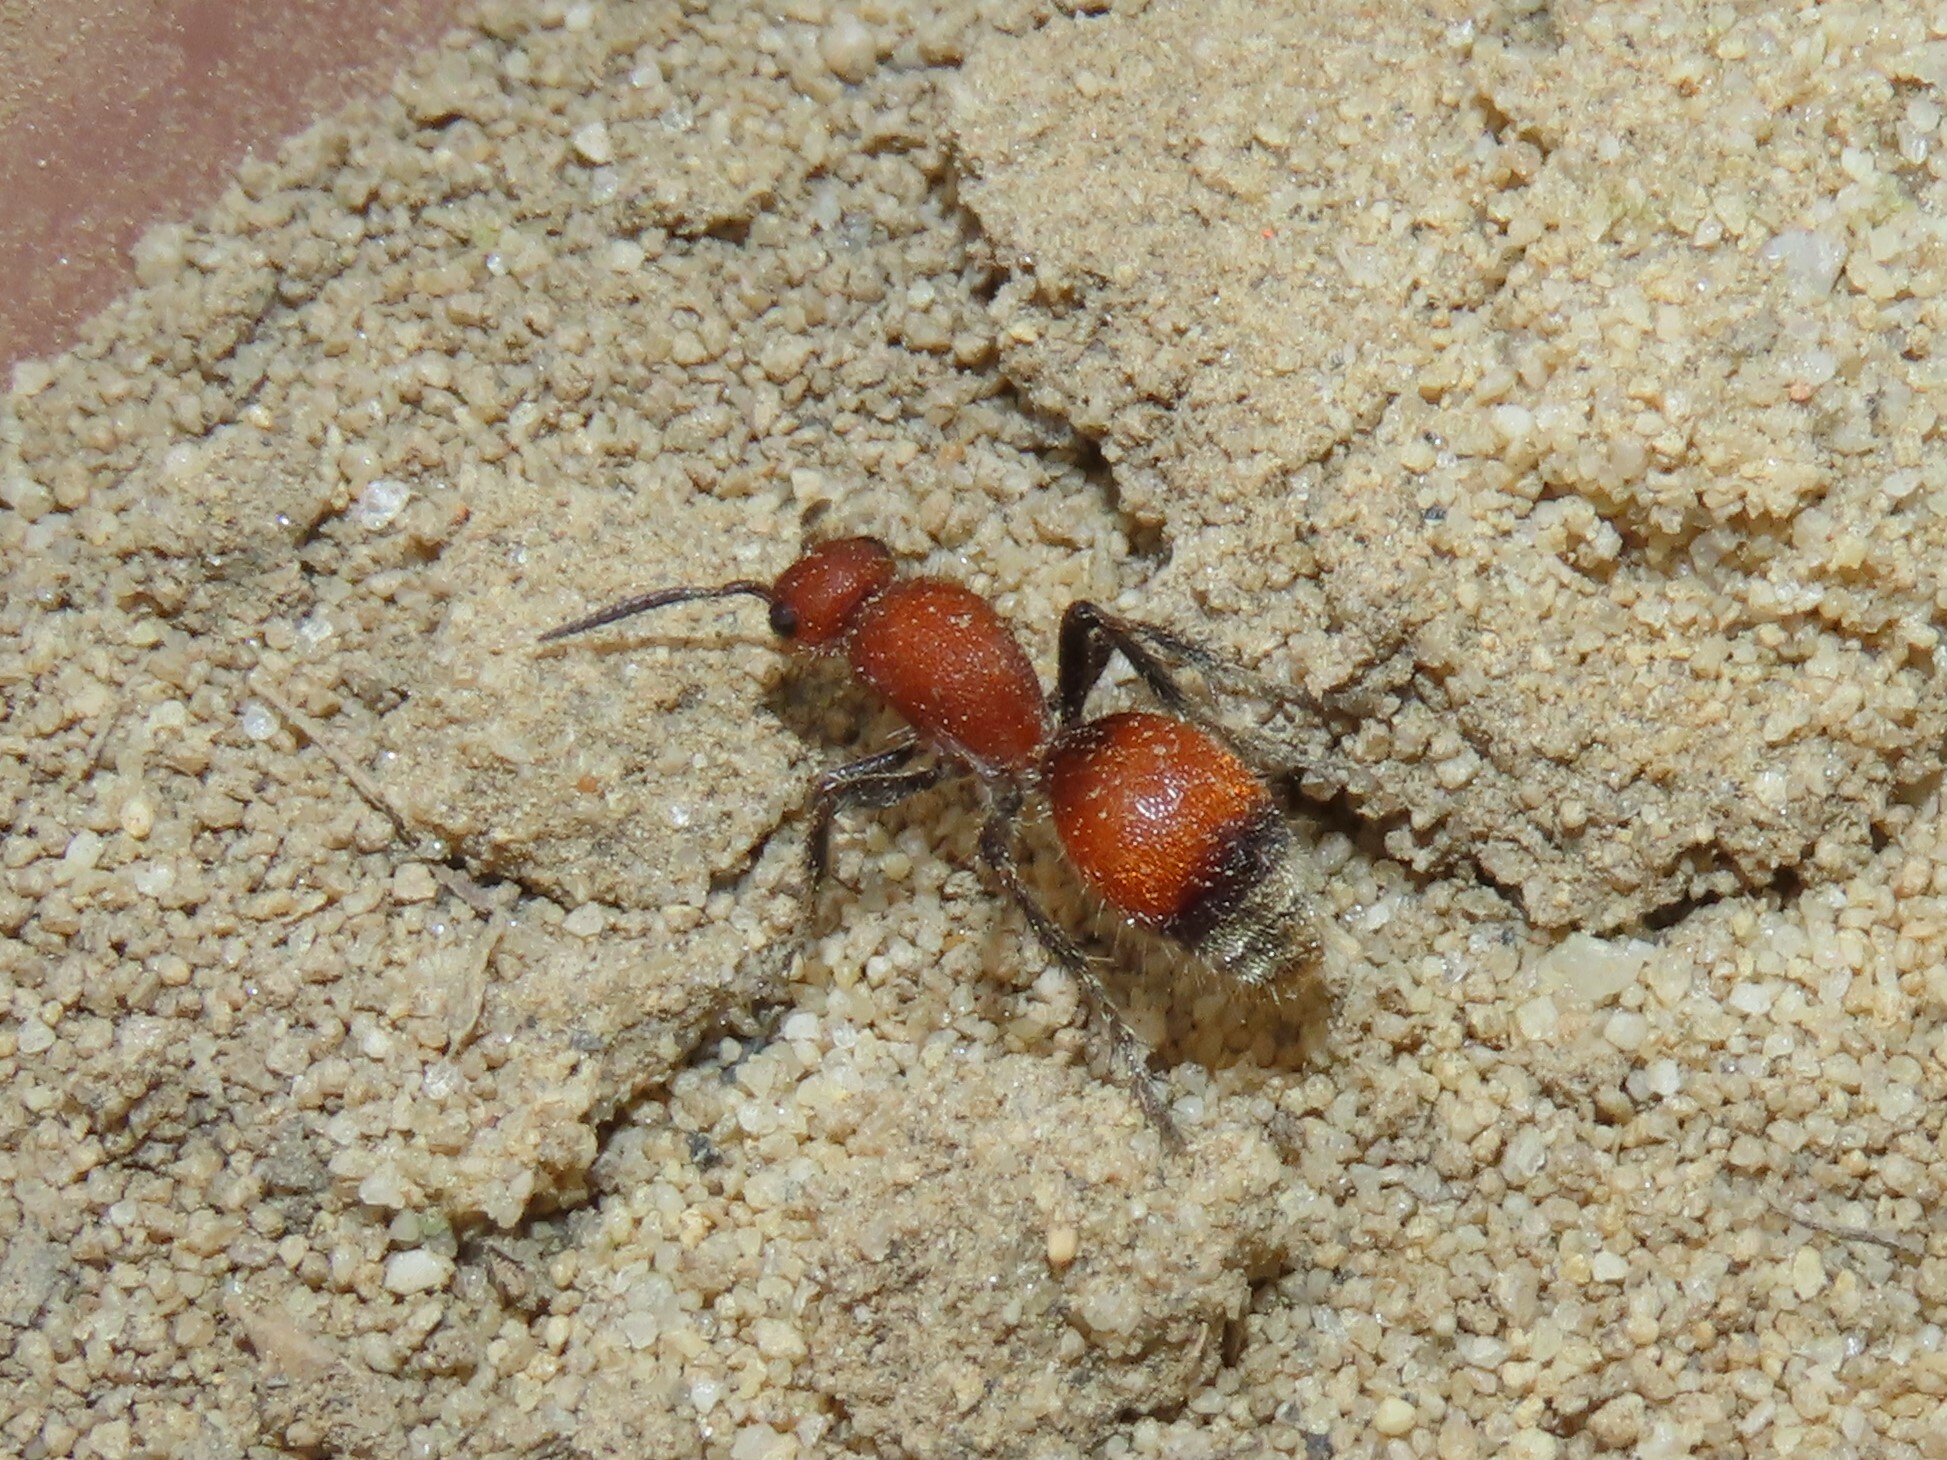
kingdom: Animalia
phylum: Arthropoda
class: Insecta
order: Hymenoptera
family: Mutillidae
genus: Dasymutilla
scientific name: Dasymutilla
